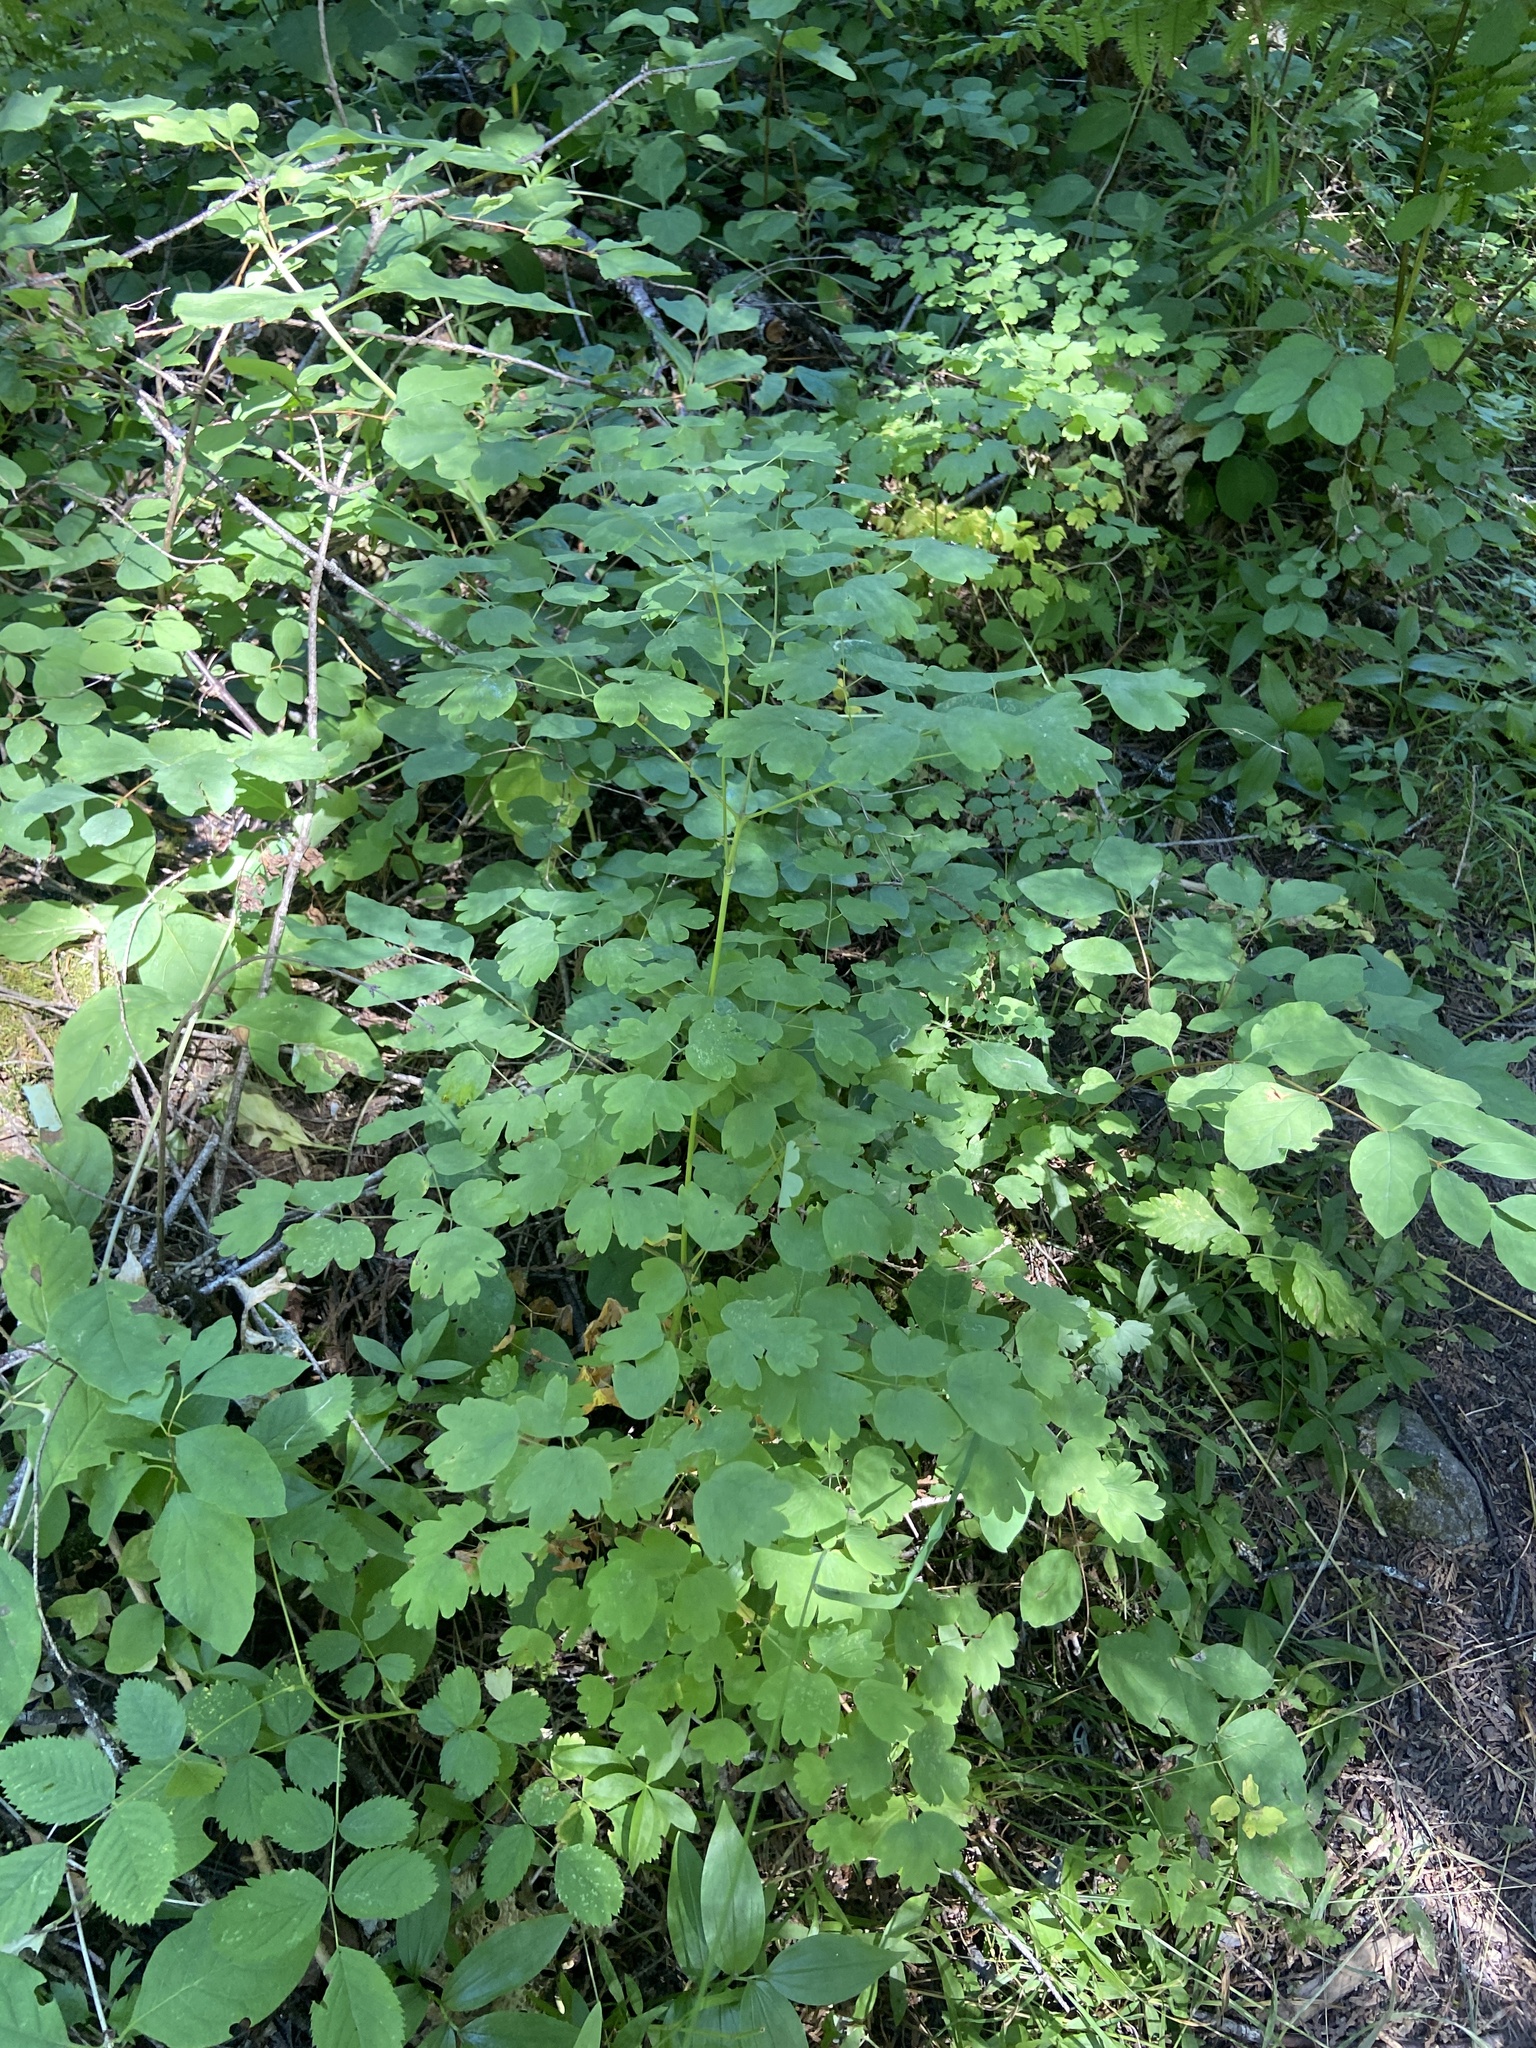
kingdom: Plantae
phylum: Tracheophyta
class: Magnoliopsida
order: Ranunculales
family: Ranunculaceae
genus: Thalictrum
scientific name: Thalictrum occidentale
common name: Western meadow-rue
